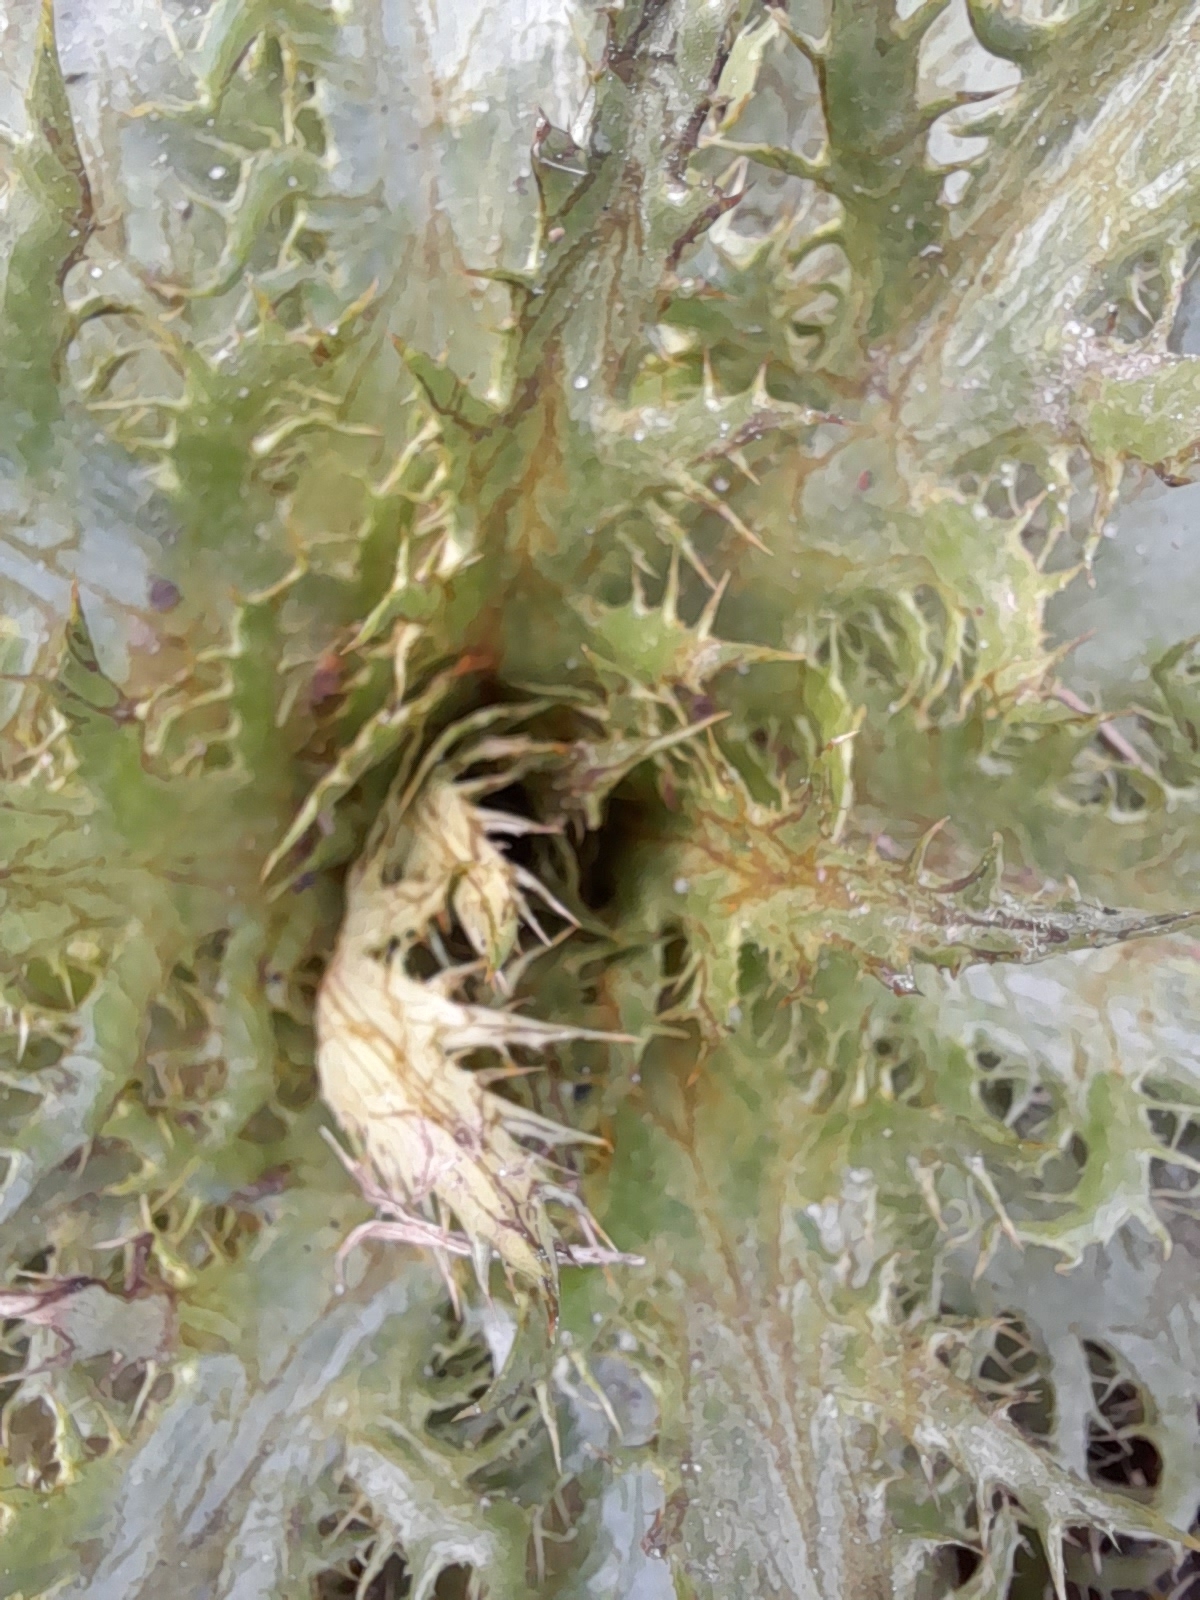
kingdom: Plantae
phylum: Tracheophyta
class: Magnoliopsida
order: Apiales
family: Apiaceae
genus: Eryngium
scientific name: Eryngium serra
